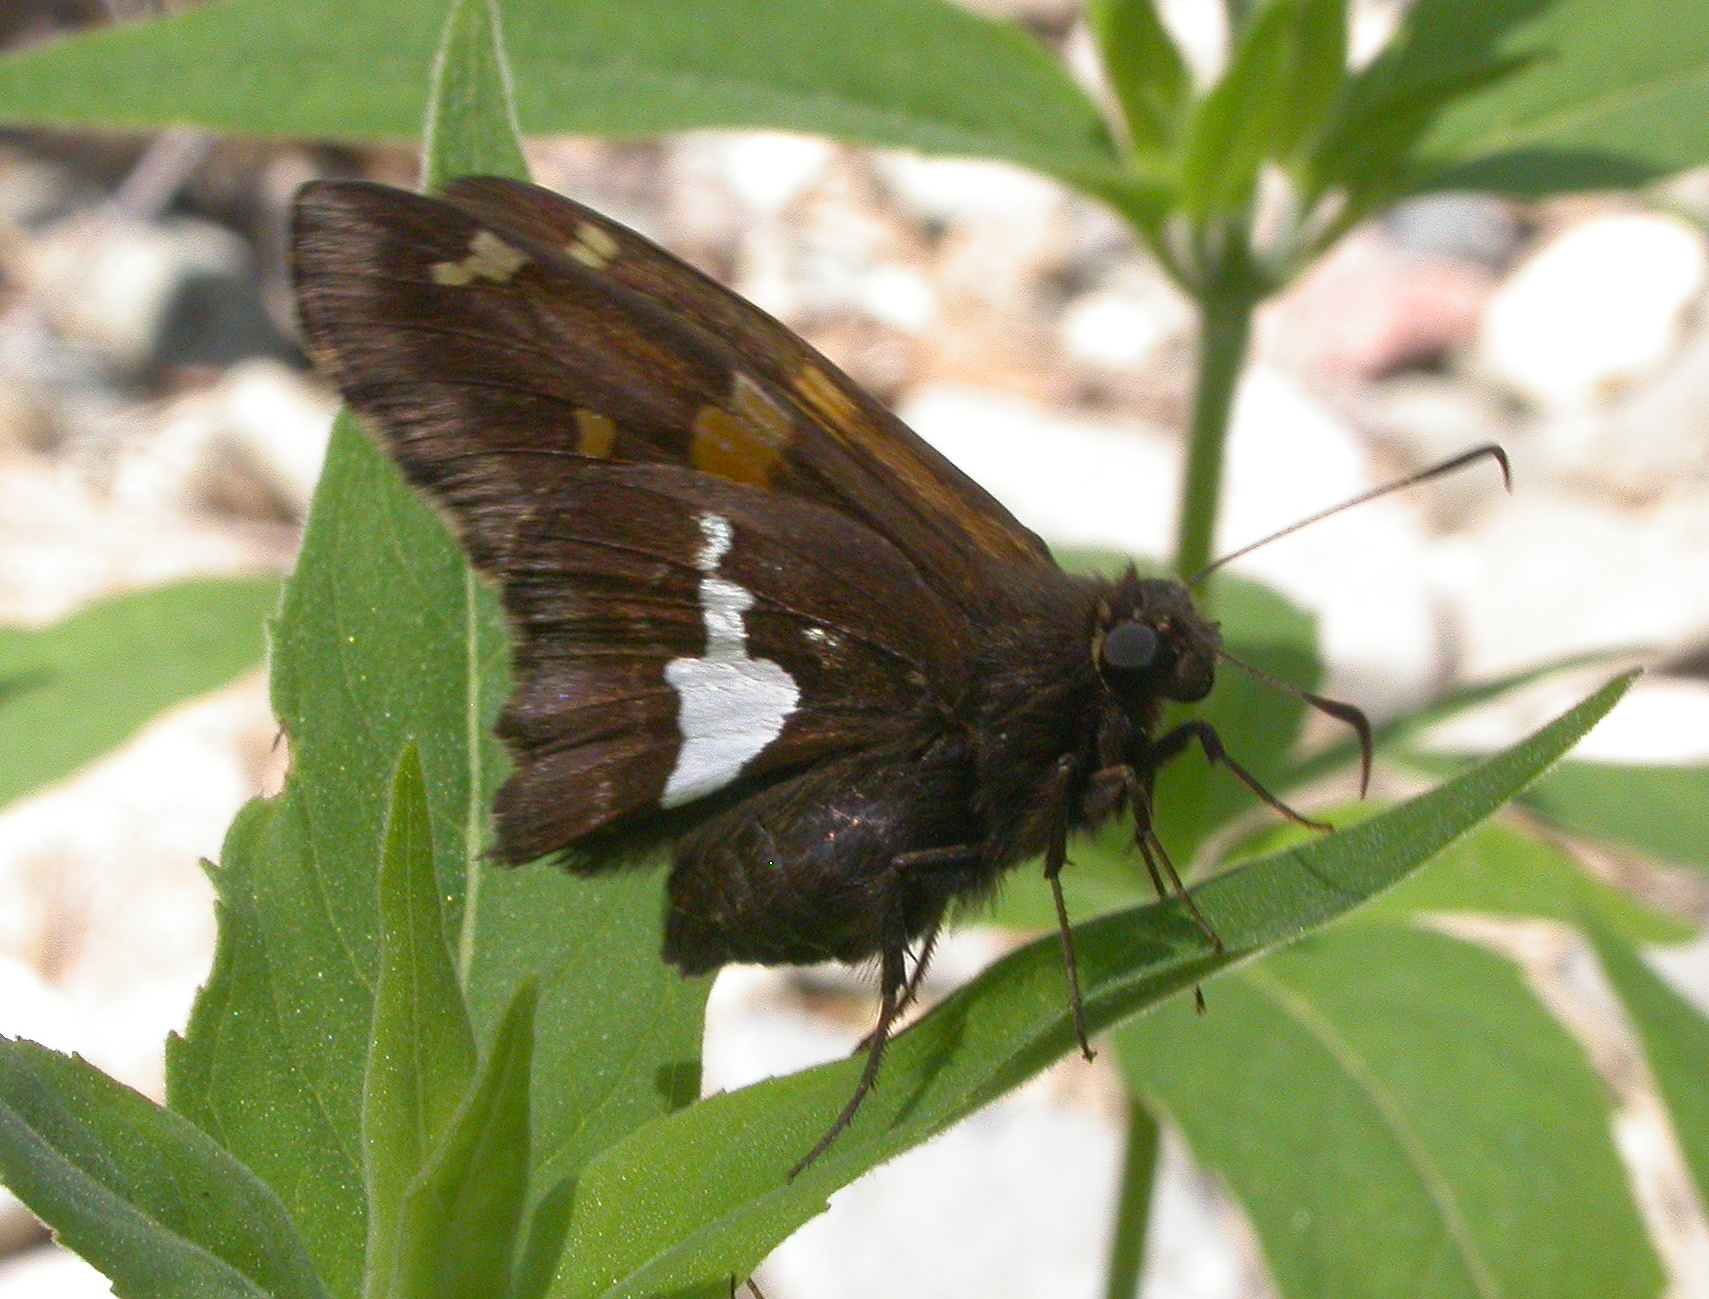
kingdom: Animalia
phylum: Arthropoda
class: Insecta
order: Lepidoptera
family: Hesperiidae
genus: Epargyreus
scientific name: Epargyreus clarus
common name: Silver-spotted skipper
